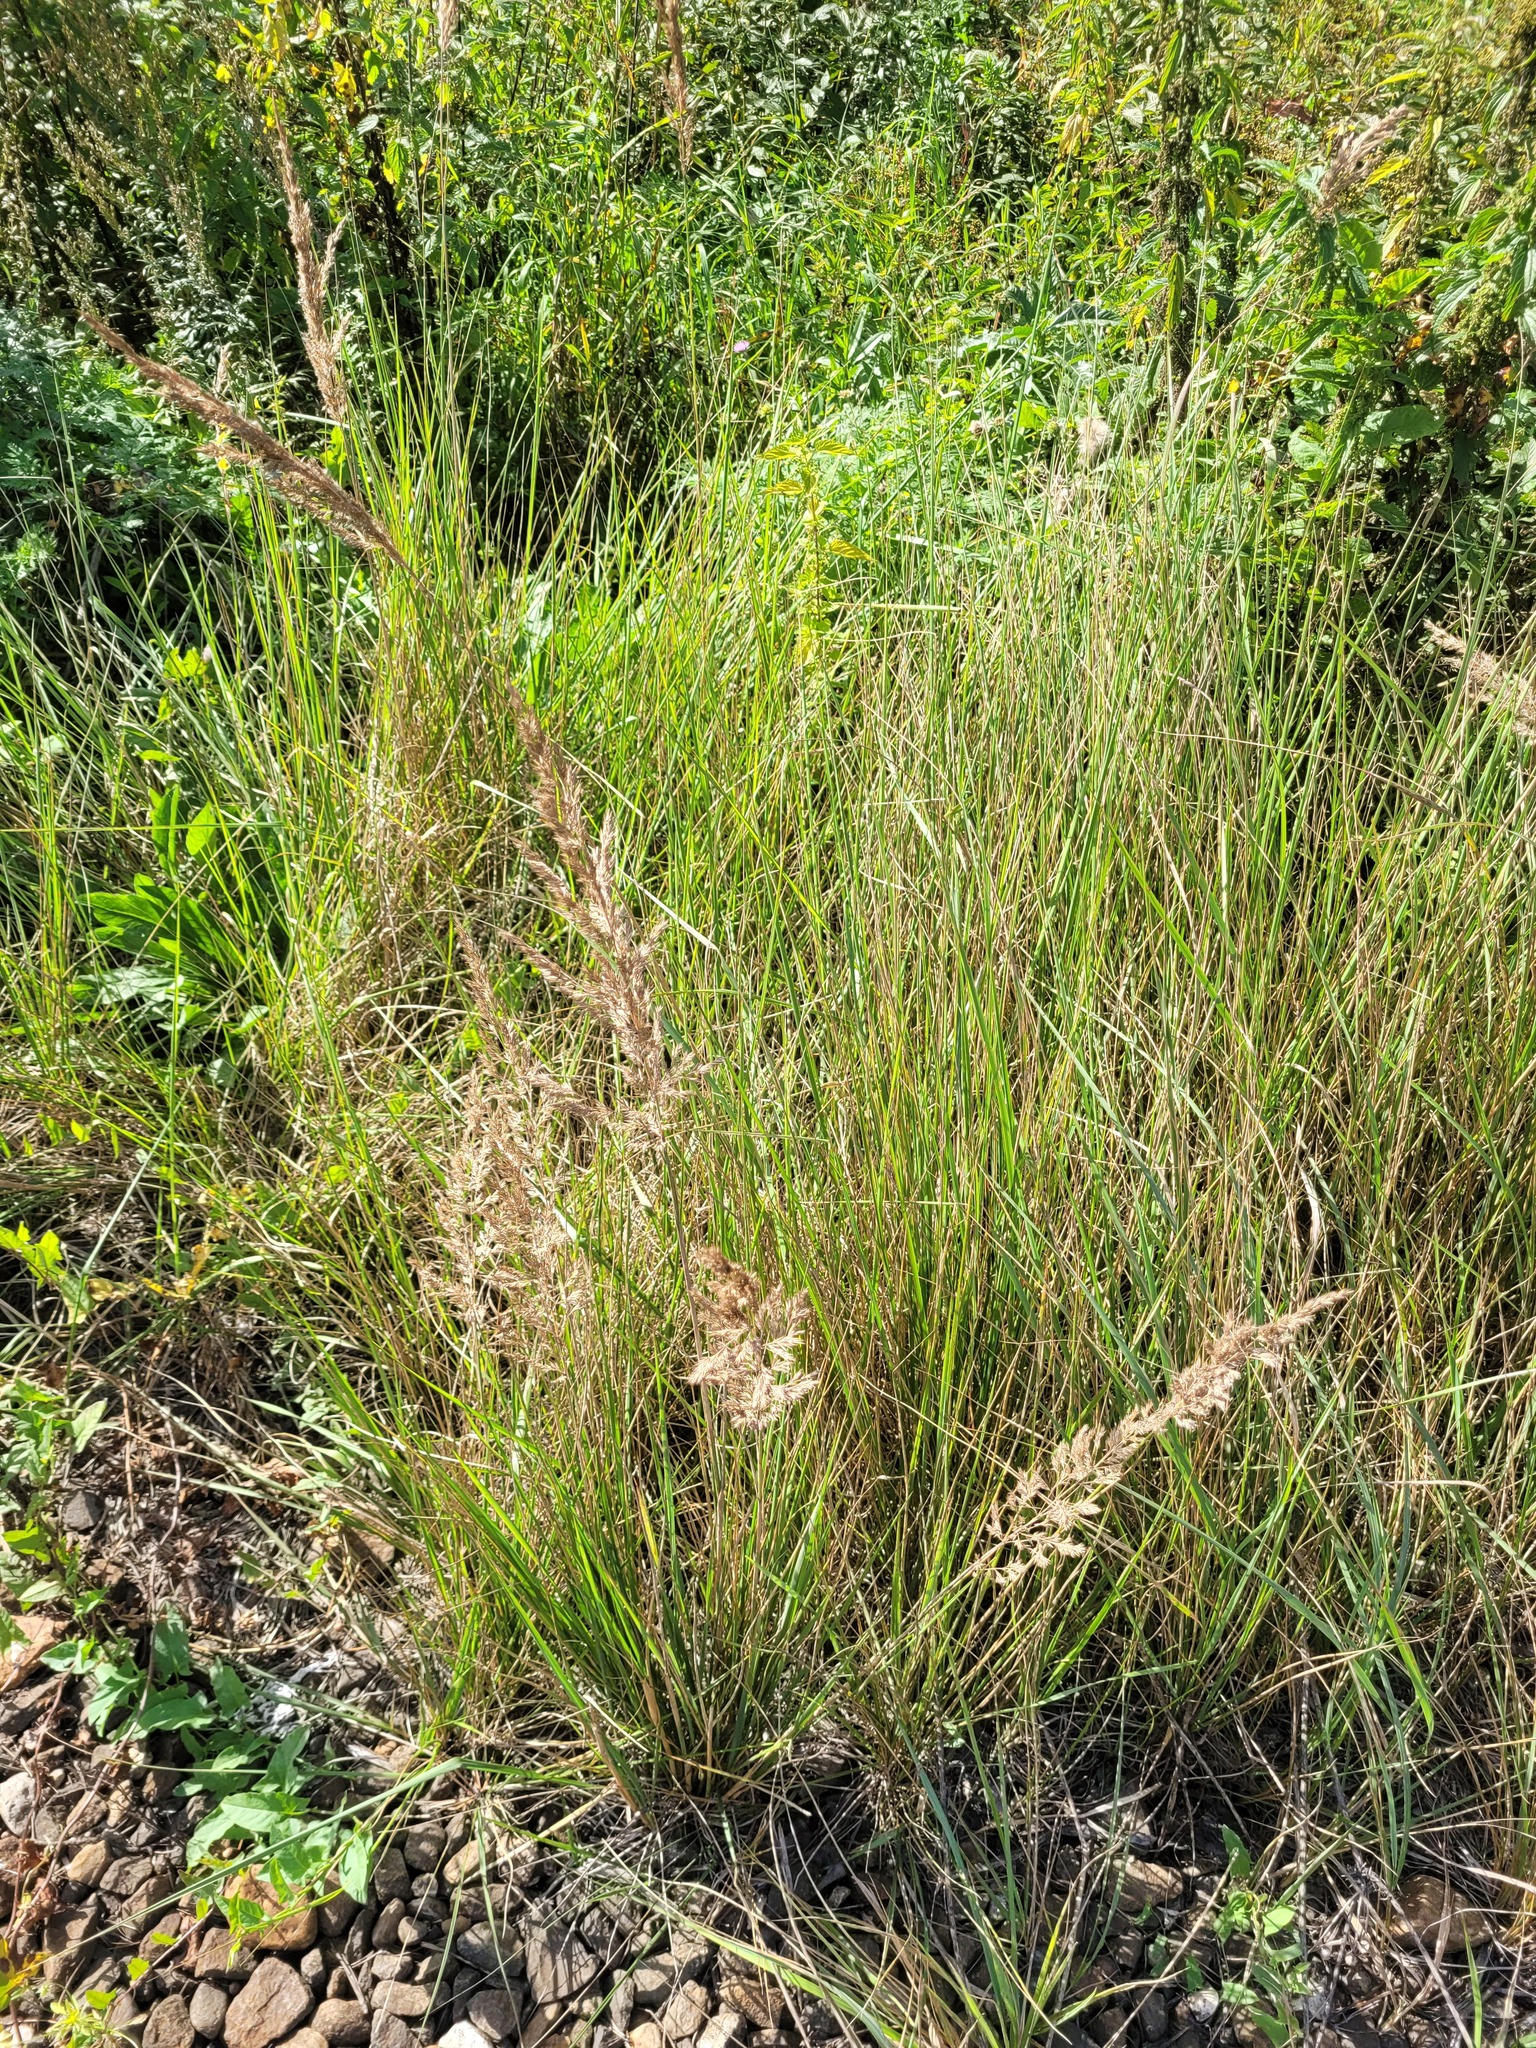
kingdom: Plantae
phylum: Tracheophyta
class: Liliopsida
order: Poales
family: Poaceae
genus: Calamagrostis
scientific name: Calamagrostis epigejos
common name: Wood small-reed
